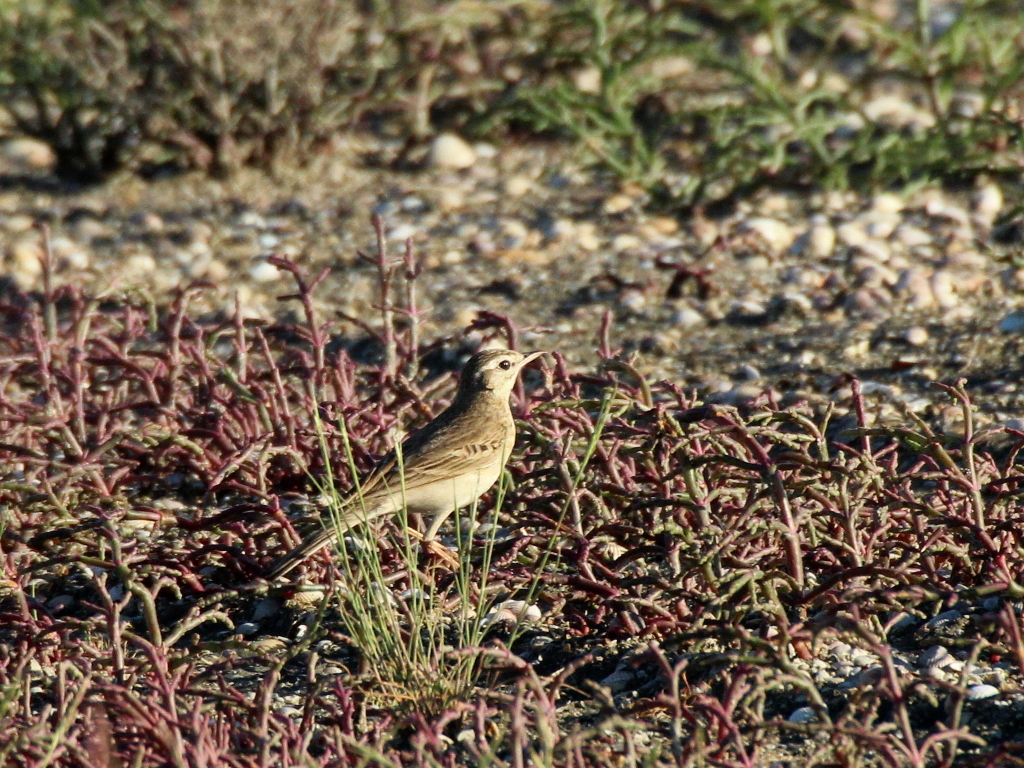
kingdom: Animalia
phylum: Chordata
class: Aves
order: Passeriformes
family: Motacillidae
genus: Anthus
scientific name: Anthus campestris
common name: Tawny pipit
